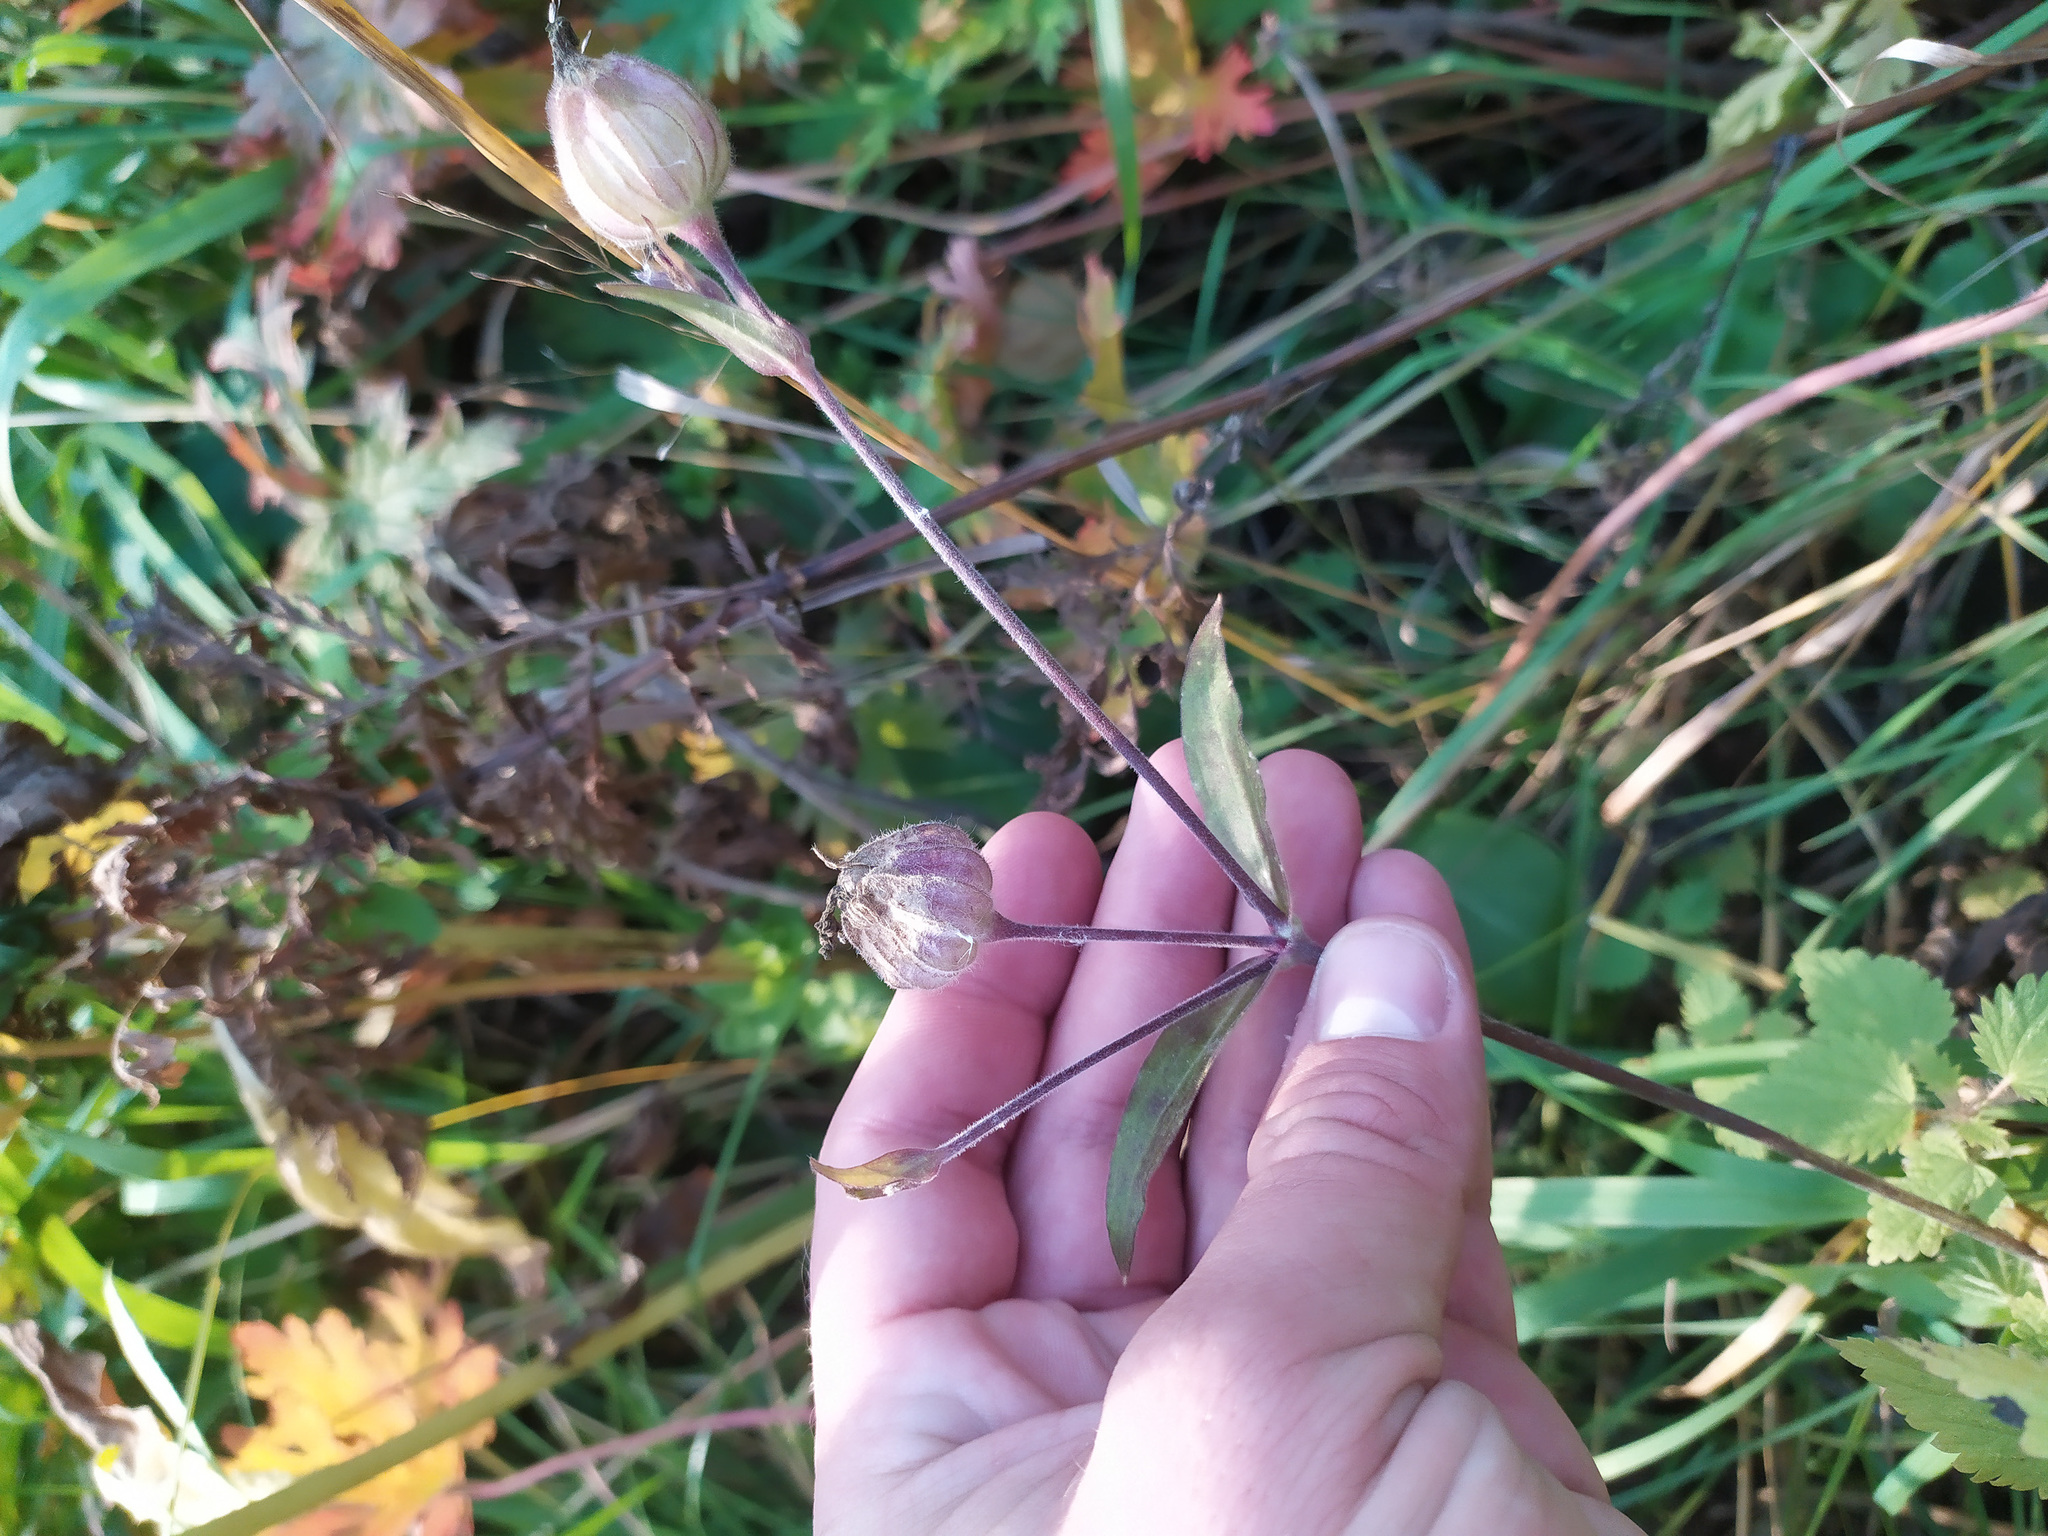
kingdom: Plantae
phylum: Tracheophyta
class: Magnoliopsida
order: Caryophyllales
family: Caryophyllaceae
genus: Silene
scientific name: Silene latifolia
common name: White campion
